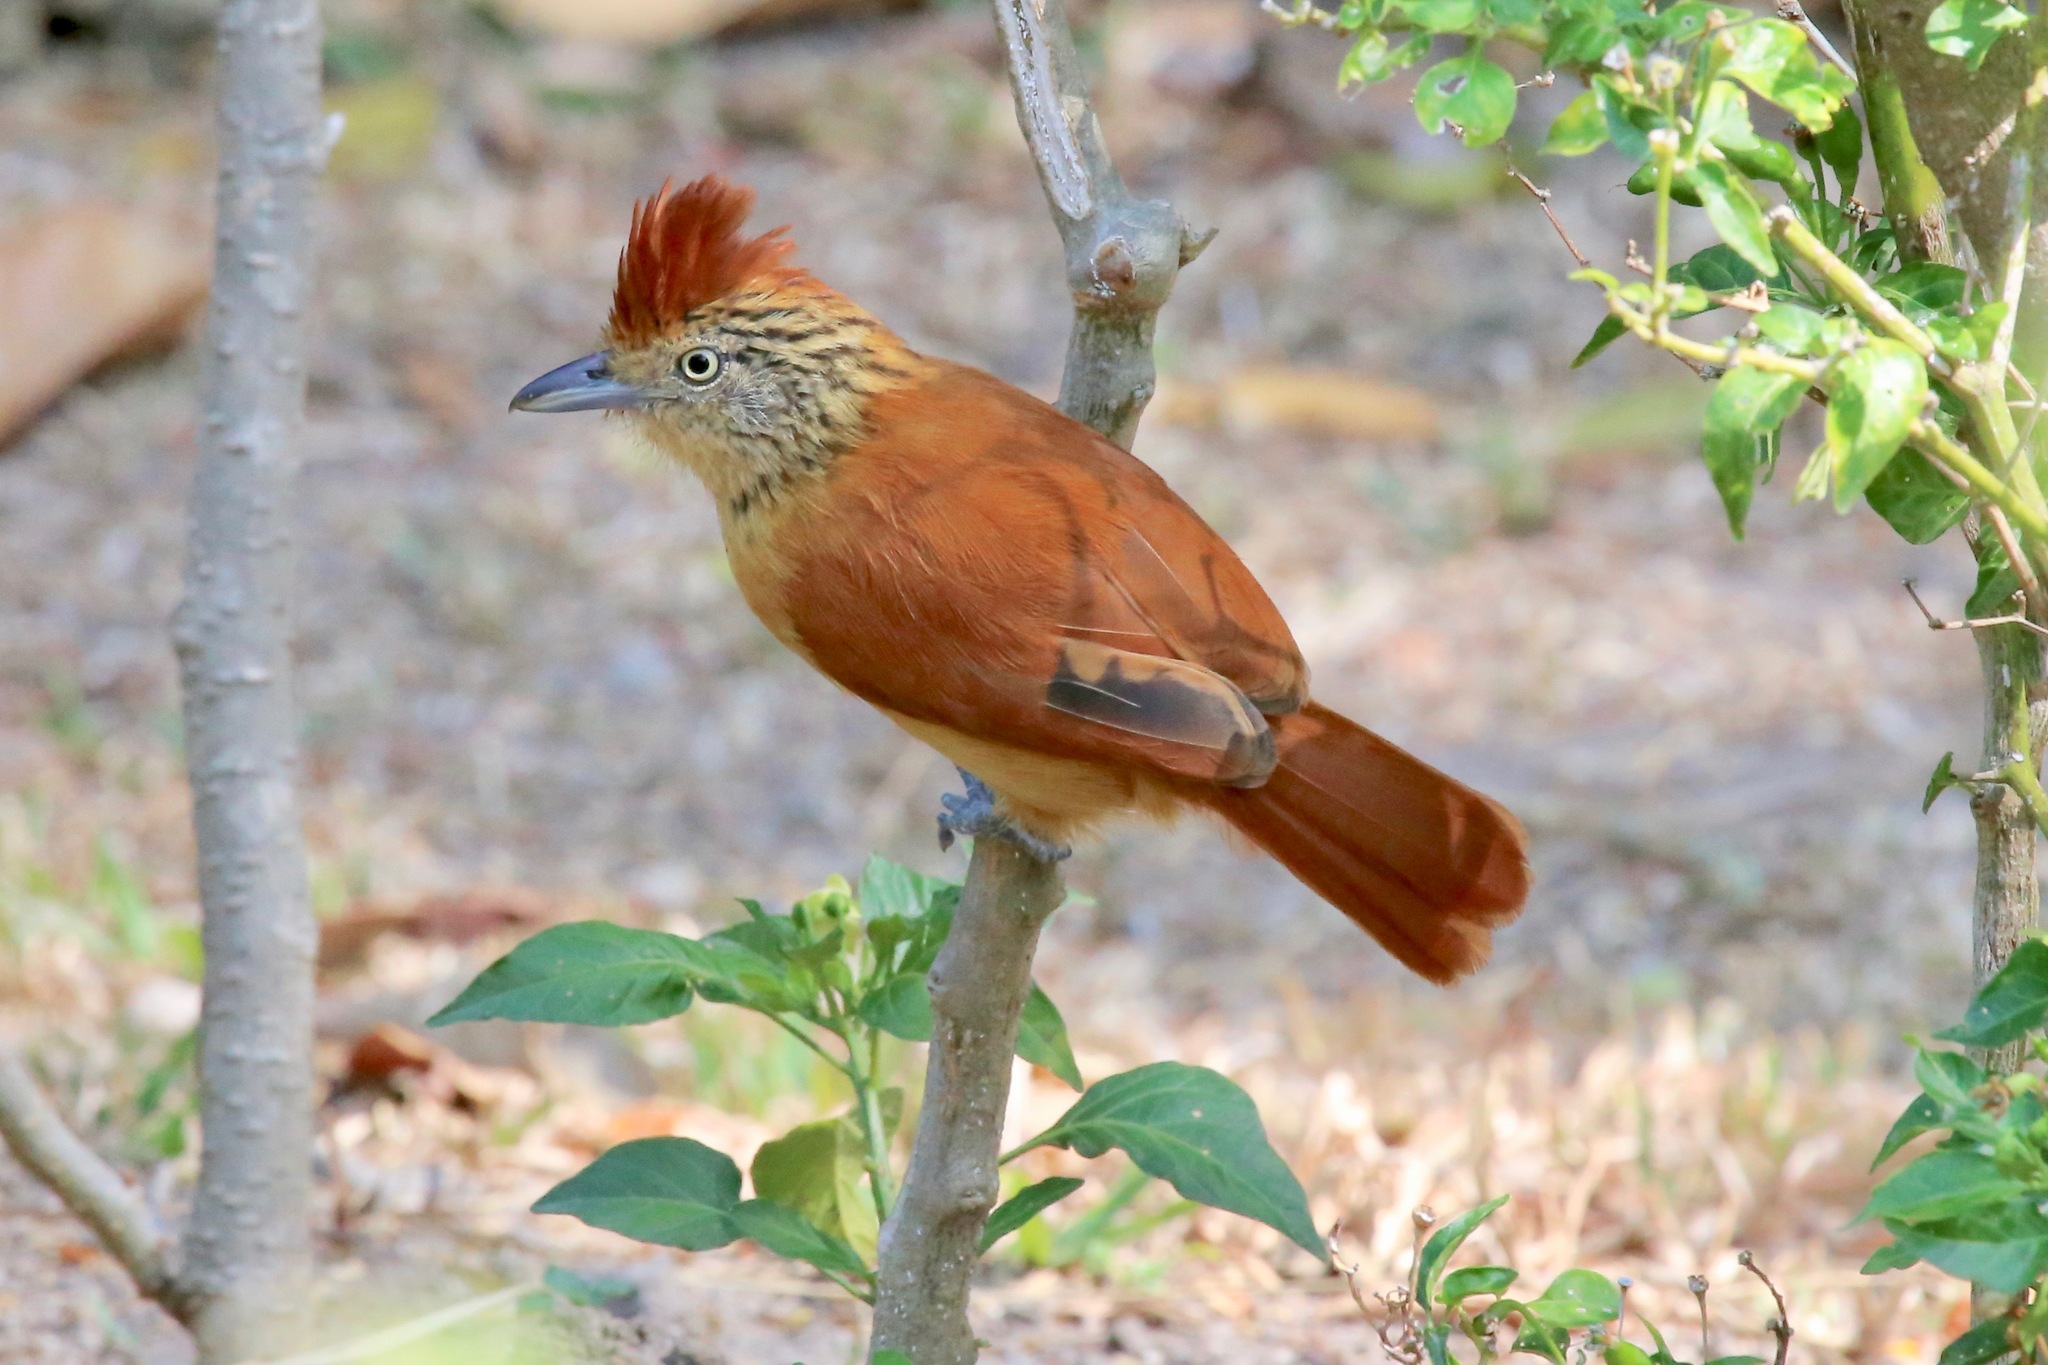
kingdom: Animalia
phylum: Chordata
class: Aves
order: Passeriformes
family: Thamnophilidae
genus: Thamnophilus
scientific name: Thamnophilus doliatus
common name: Barred antshrike
